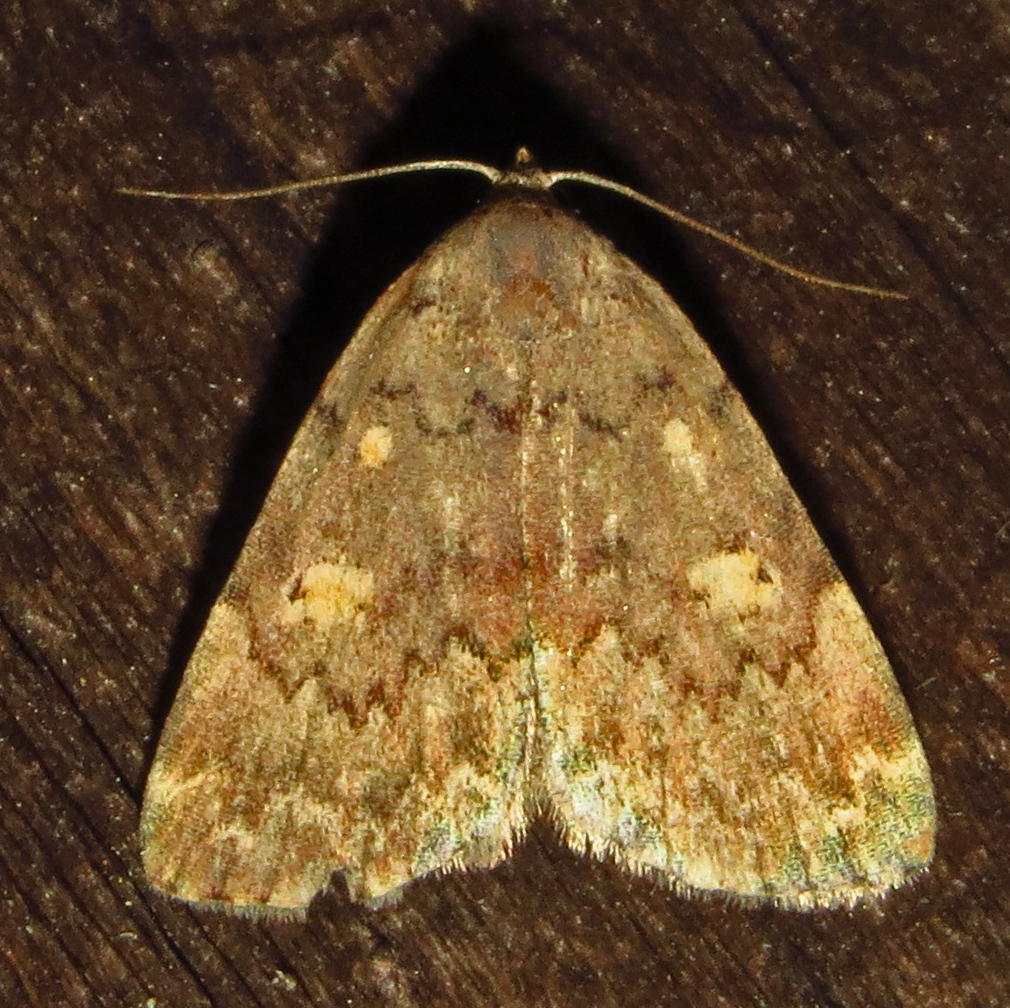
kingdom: Animalia
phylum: Arthropoda
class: Insecta
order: Lepidoptera
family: Erebidae
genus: Idia
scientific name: Idia aemula
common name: Common idia moth
